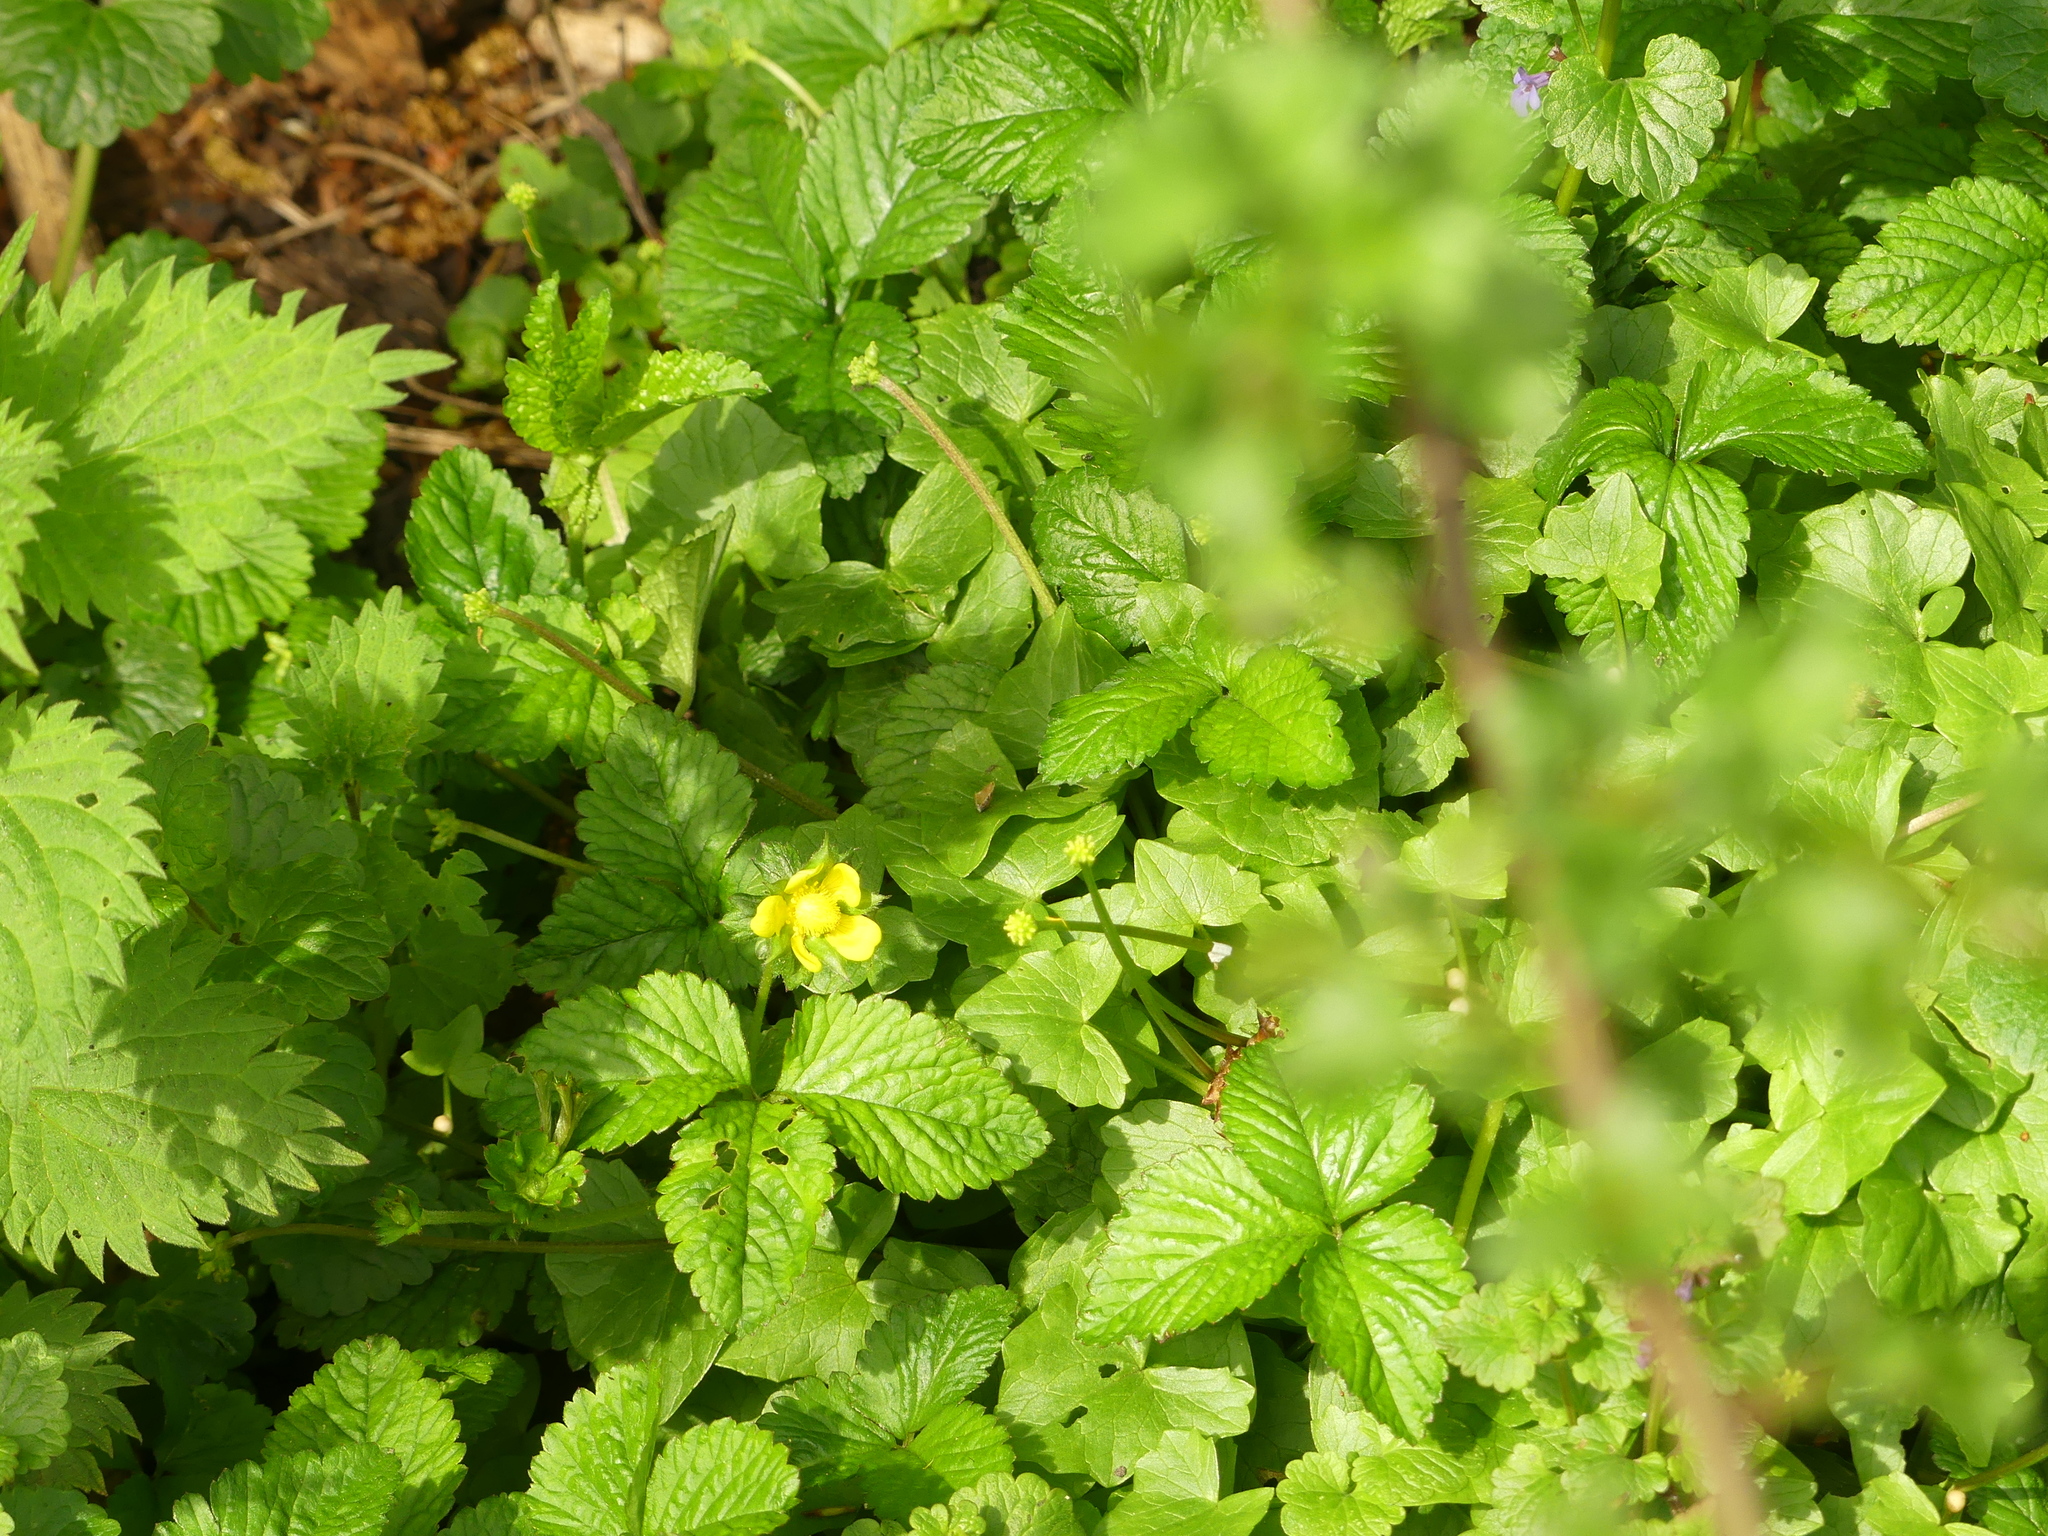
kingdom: Plantae
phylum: Tracheophyta
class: Magnoliopsida
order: Rosales
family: Rosaceae
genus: Potentilla
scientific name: Potentilla indica
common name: Yellow-flowered strawberry
